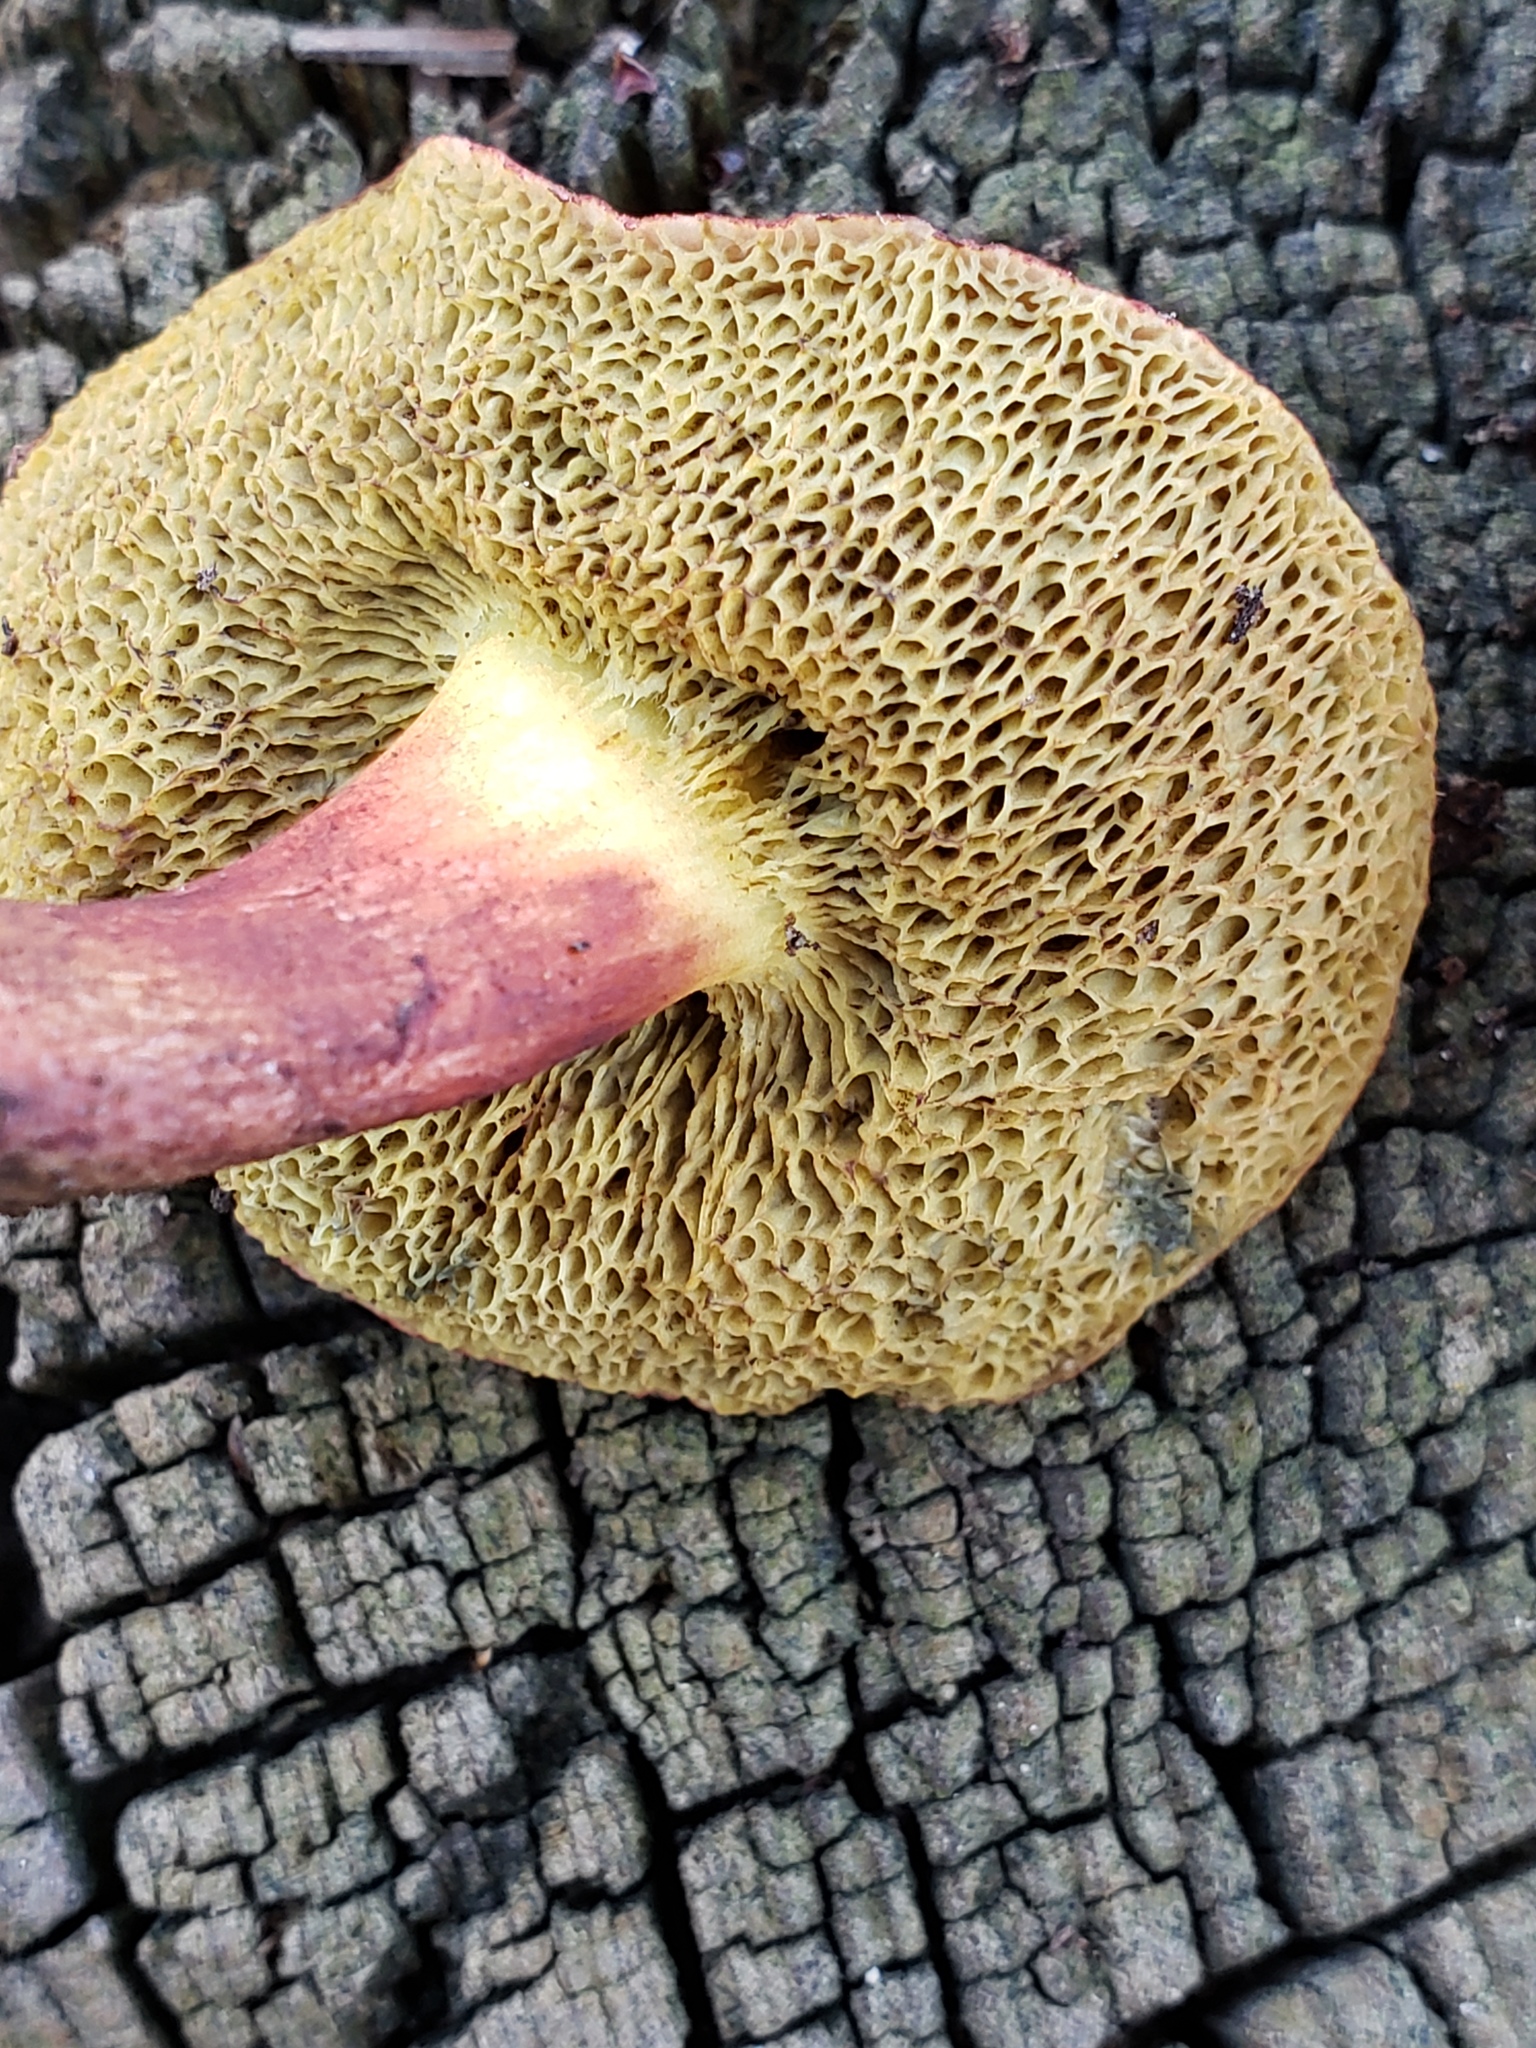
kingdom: Fungi
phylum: Basidiomycota
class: Agaricomycetes
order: Boletales
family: Boletaceae
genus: Xerocomellus
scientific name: Xerocomellus dryophilus
